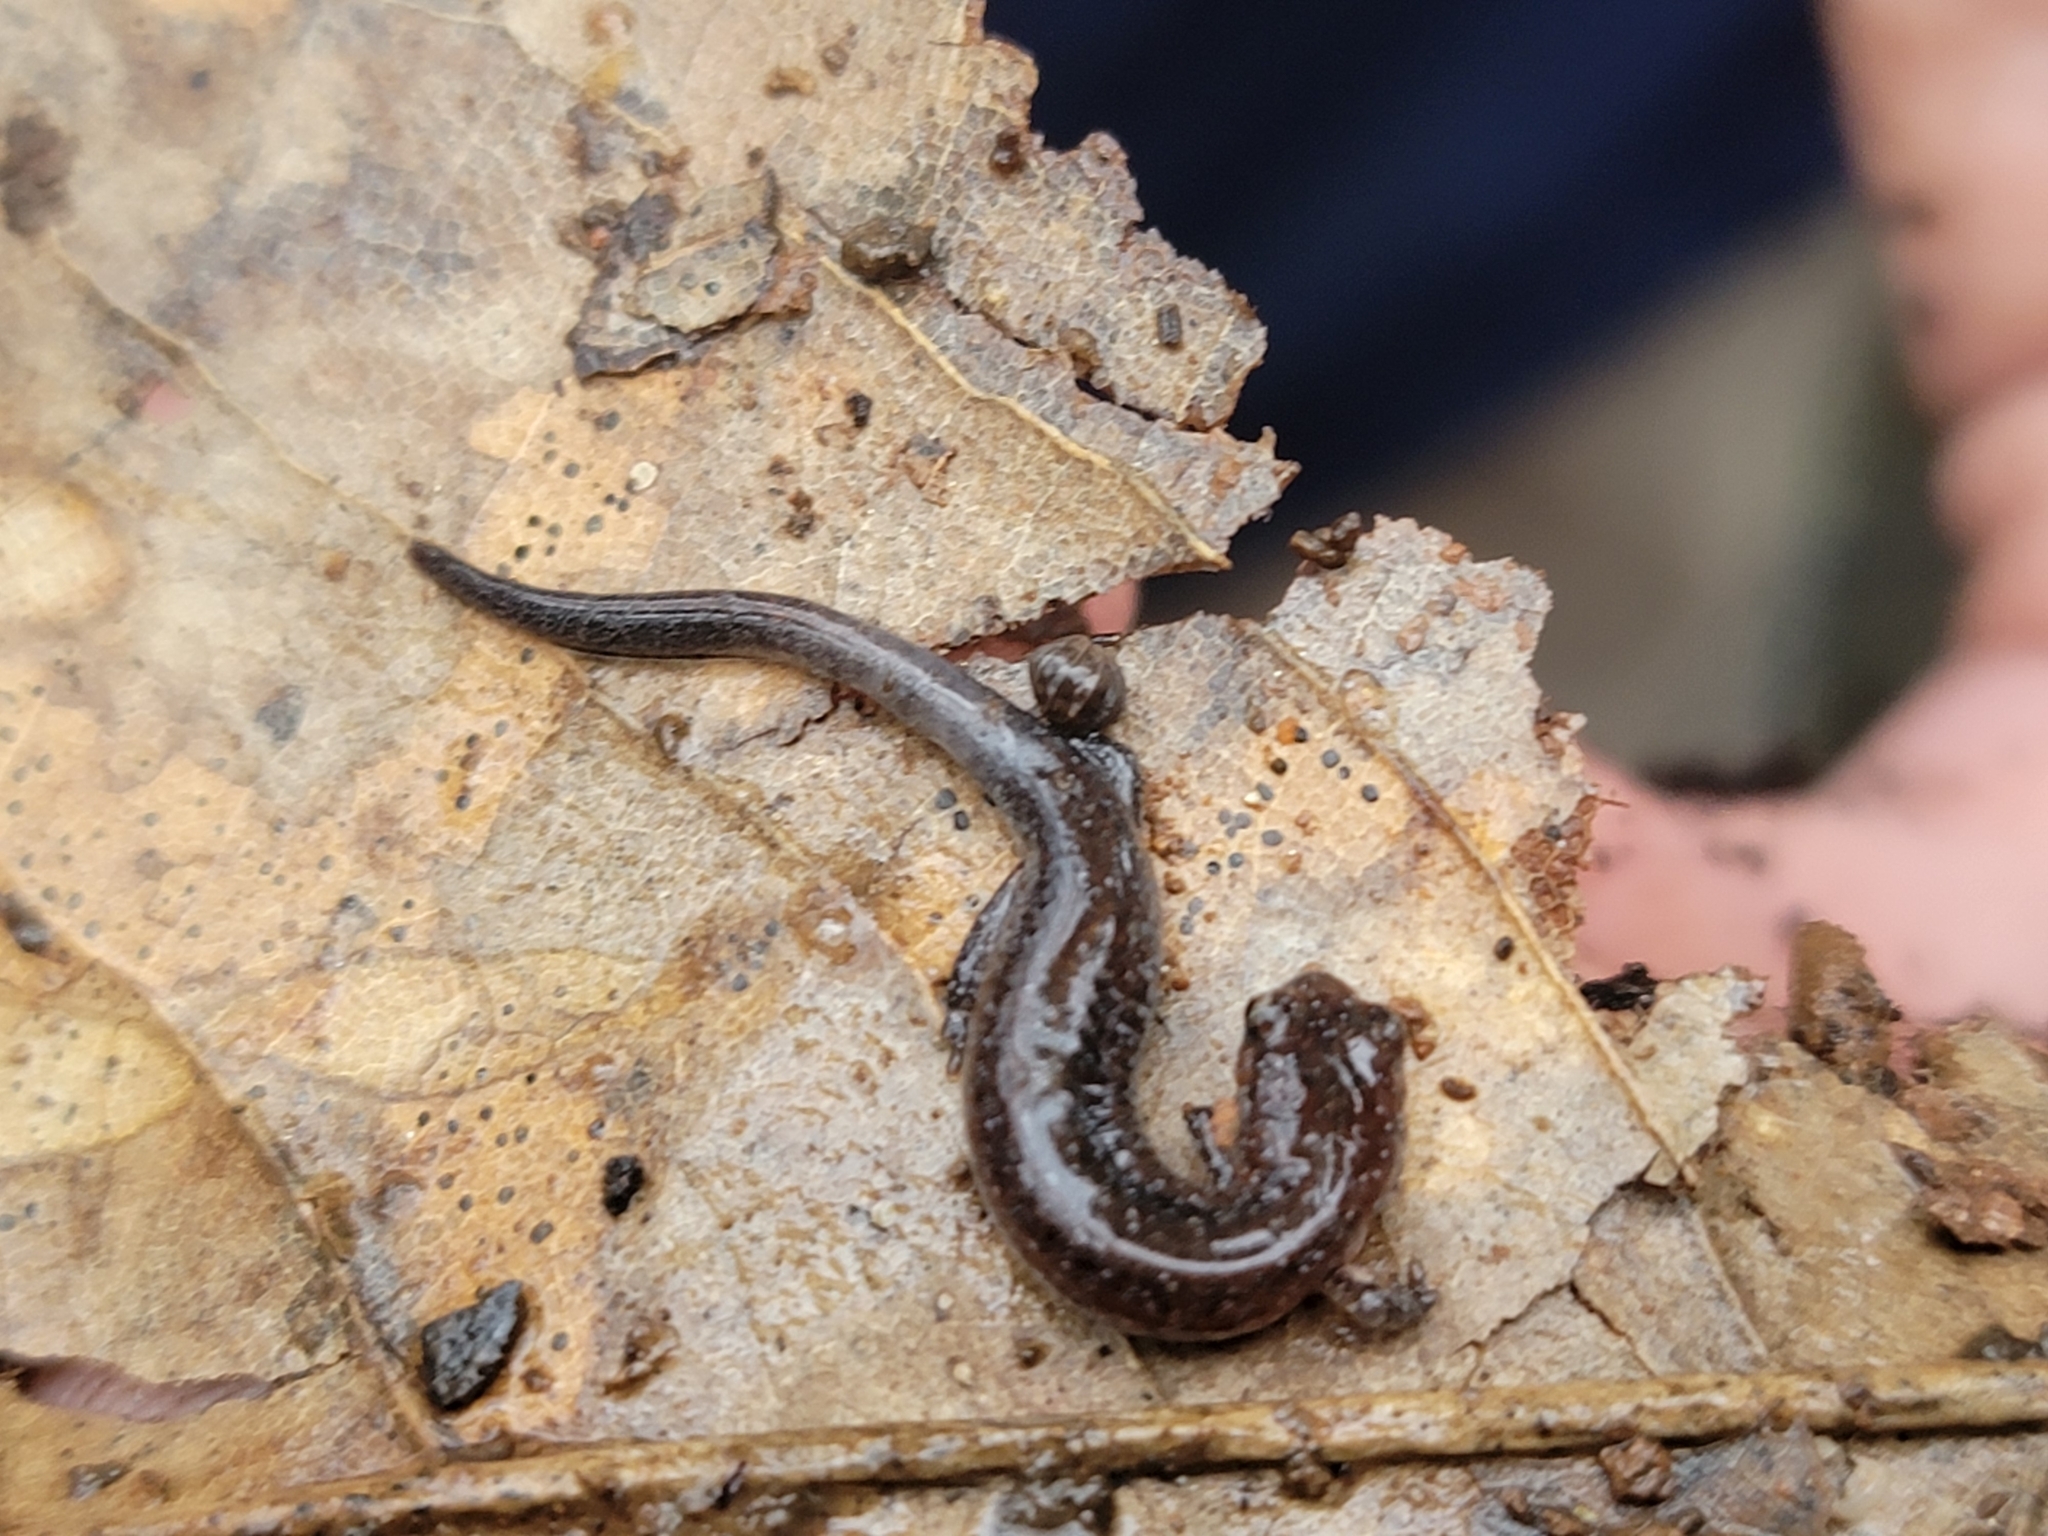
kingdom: Animalia
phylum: Chordata
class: Amphibia
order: Caudata
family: Plethodontidae
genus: Plethodon
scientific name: Plethodon serratus
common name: Southern red-backed salamander
